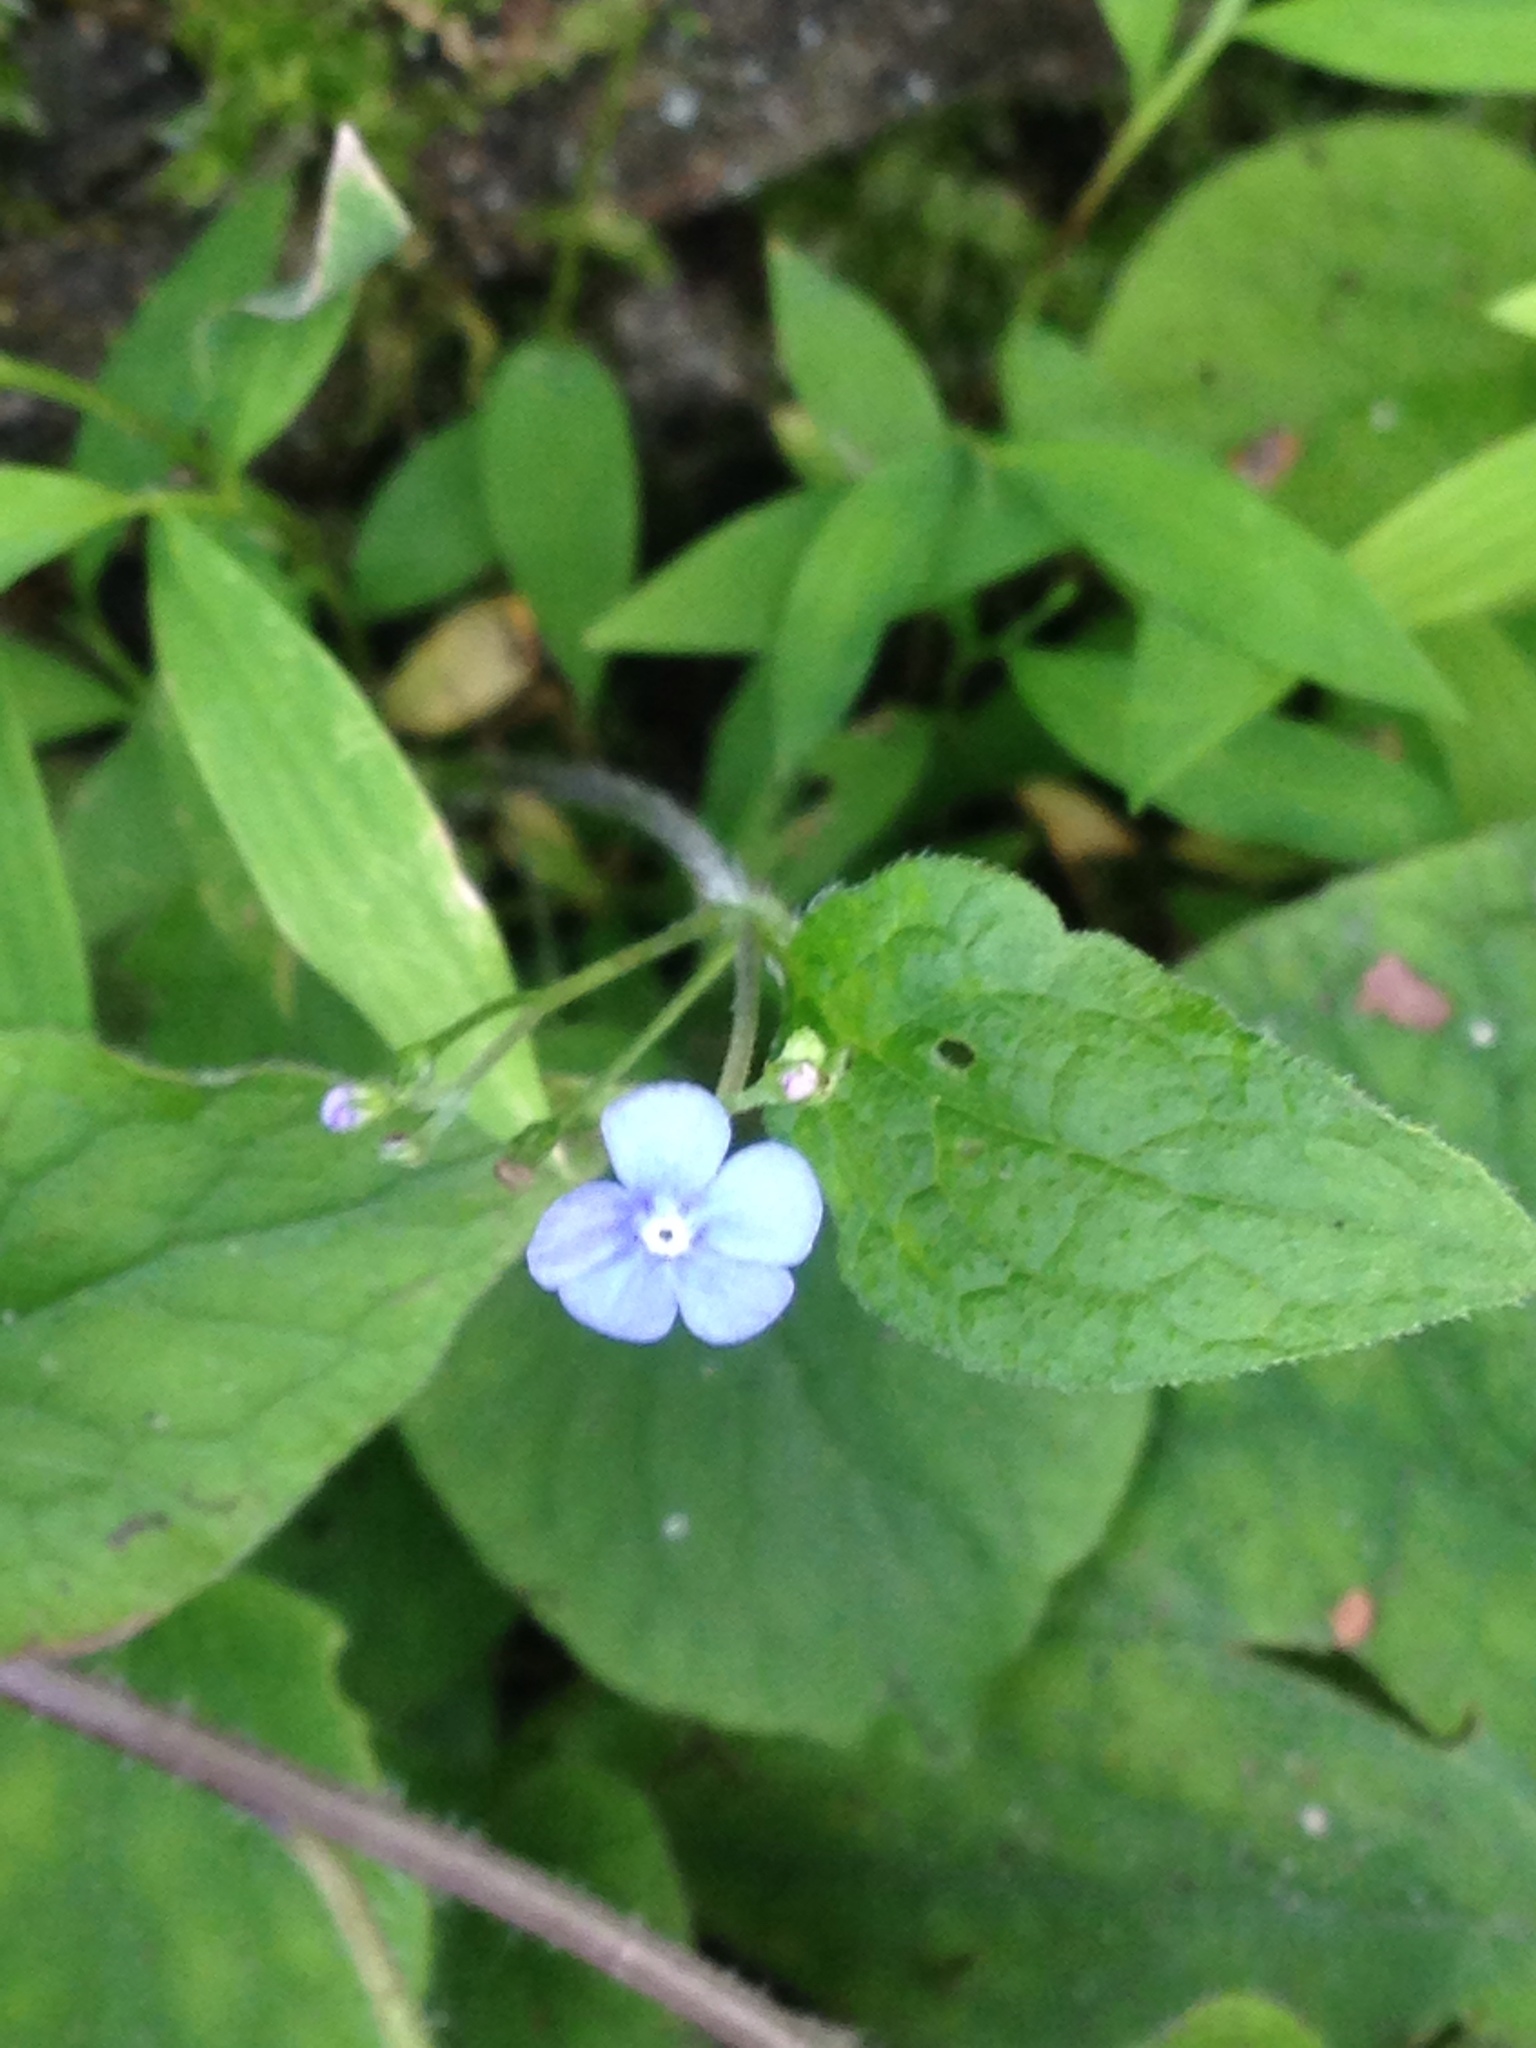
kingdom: Plantae
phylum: Tracheophyta
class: Magnoliopsida
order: Boraginales
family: Boraginaceae
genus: Brunnera
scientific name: Brunnera macrophylla
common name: Great forget-me-not
